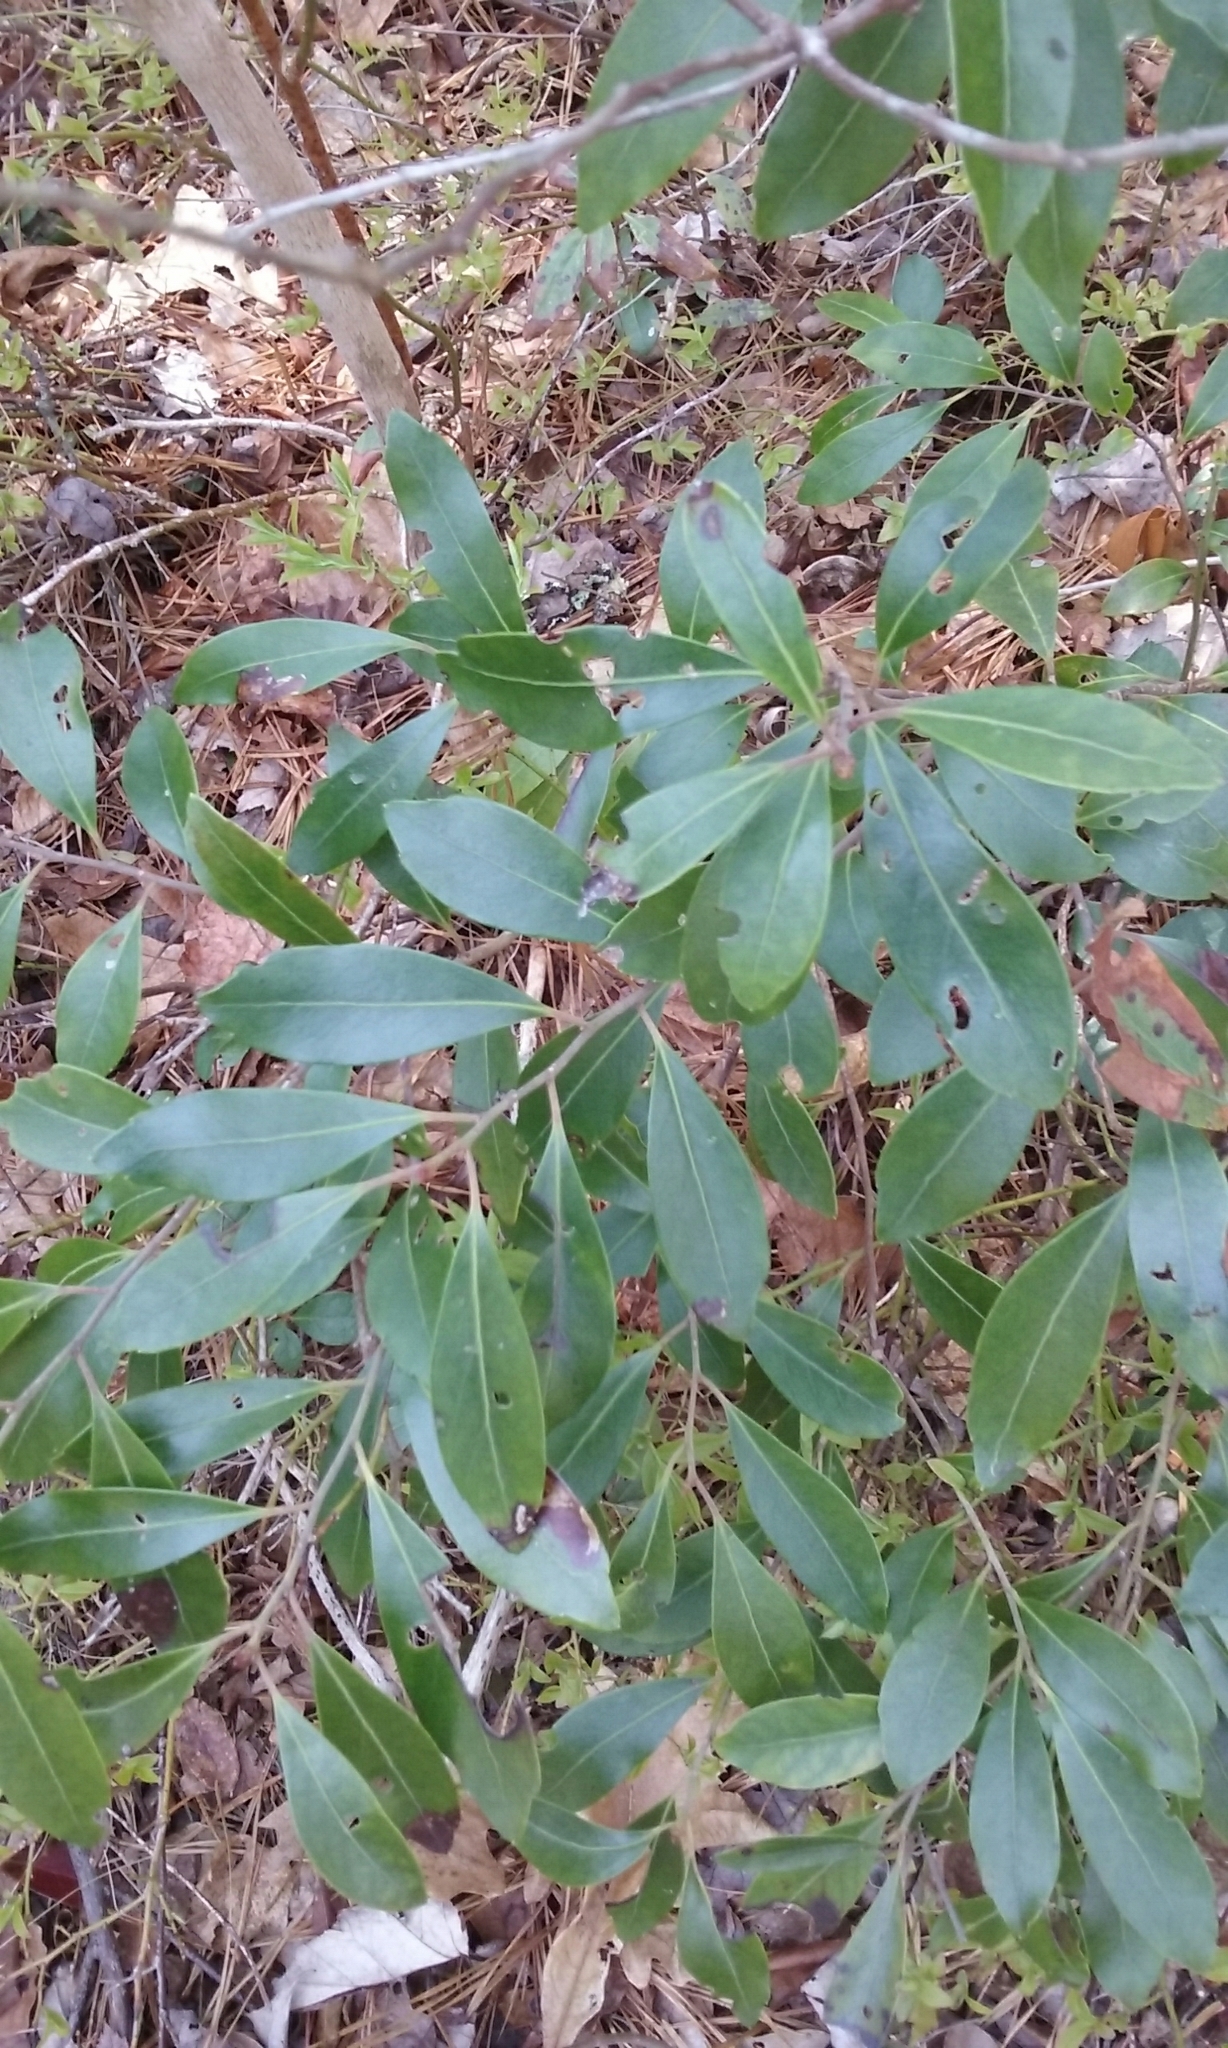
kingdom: Plantae
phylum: Tracheophyta
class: Magnoliopsida
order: Aquifoliales
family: Aquifoliaceae
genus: Ilex
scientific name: Ilex glabra
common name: Bitter gallberry
